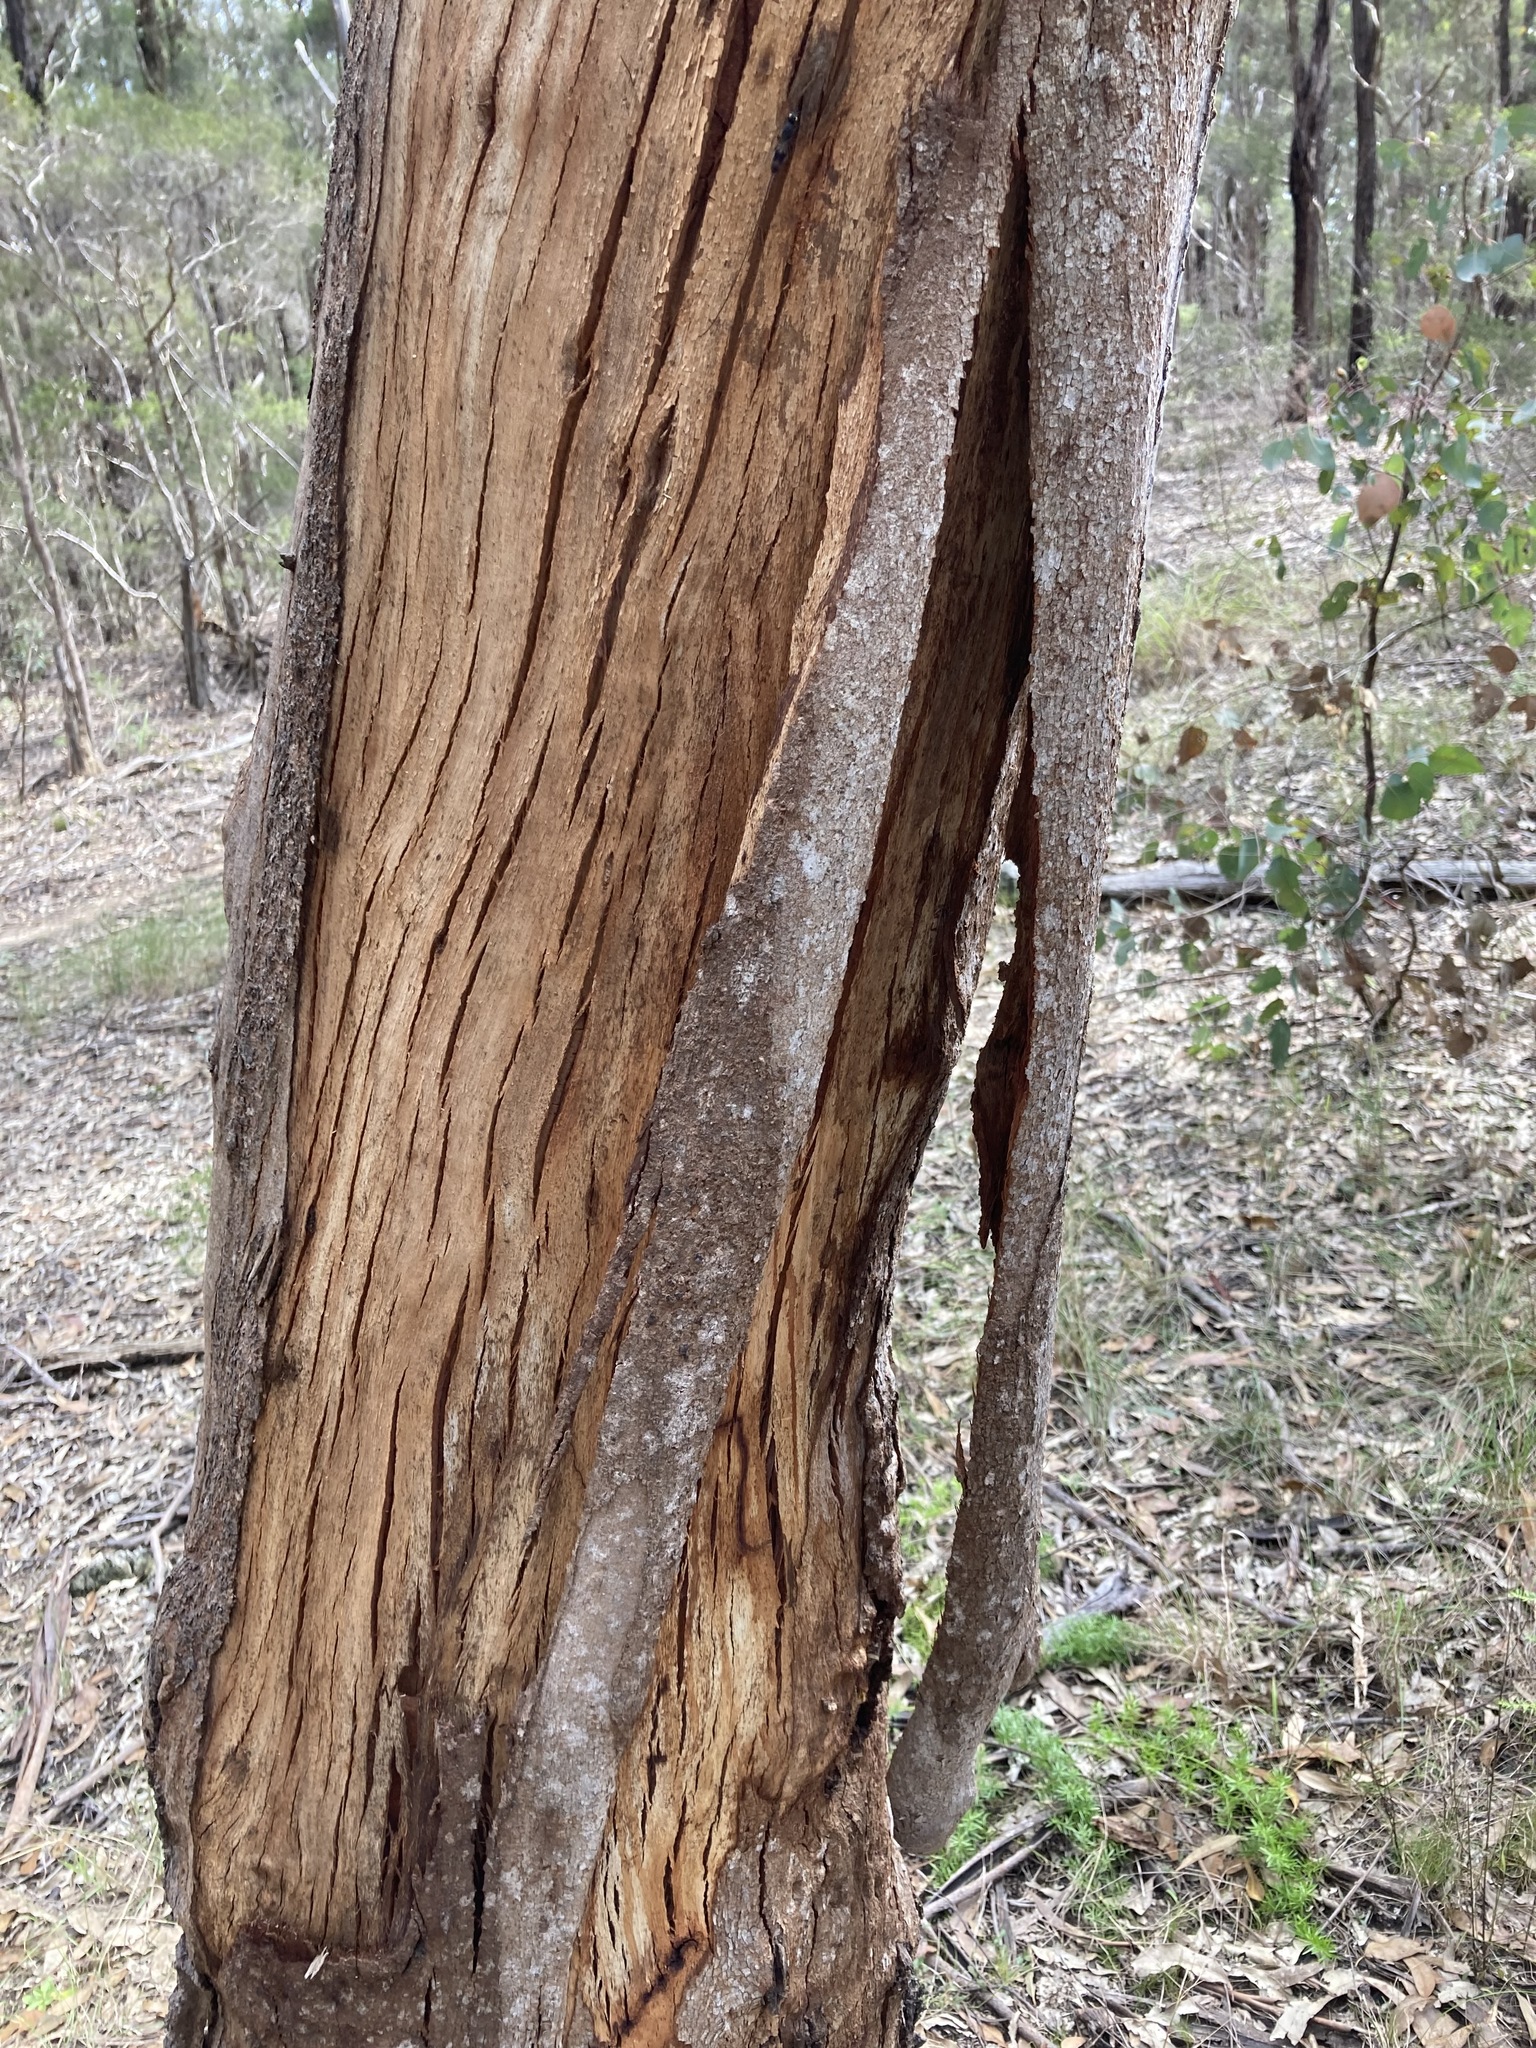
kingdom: Plantae
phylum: Tracheophyta
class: Magnoliopsida
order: Myrtales
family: Myrtaceae
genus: Eucalyptus
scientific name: Eucalyptus punctata
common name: Gray gum
